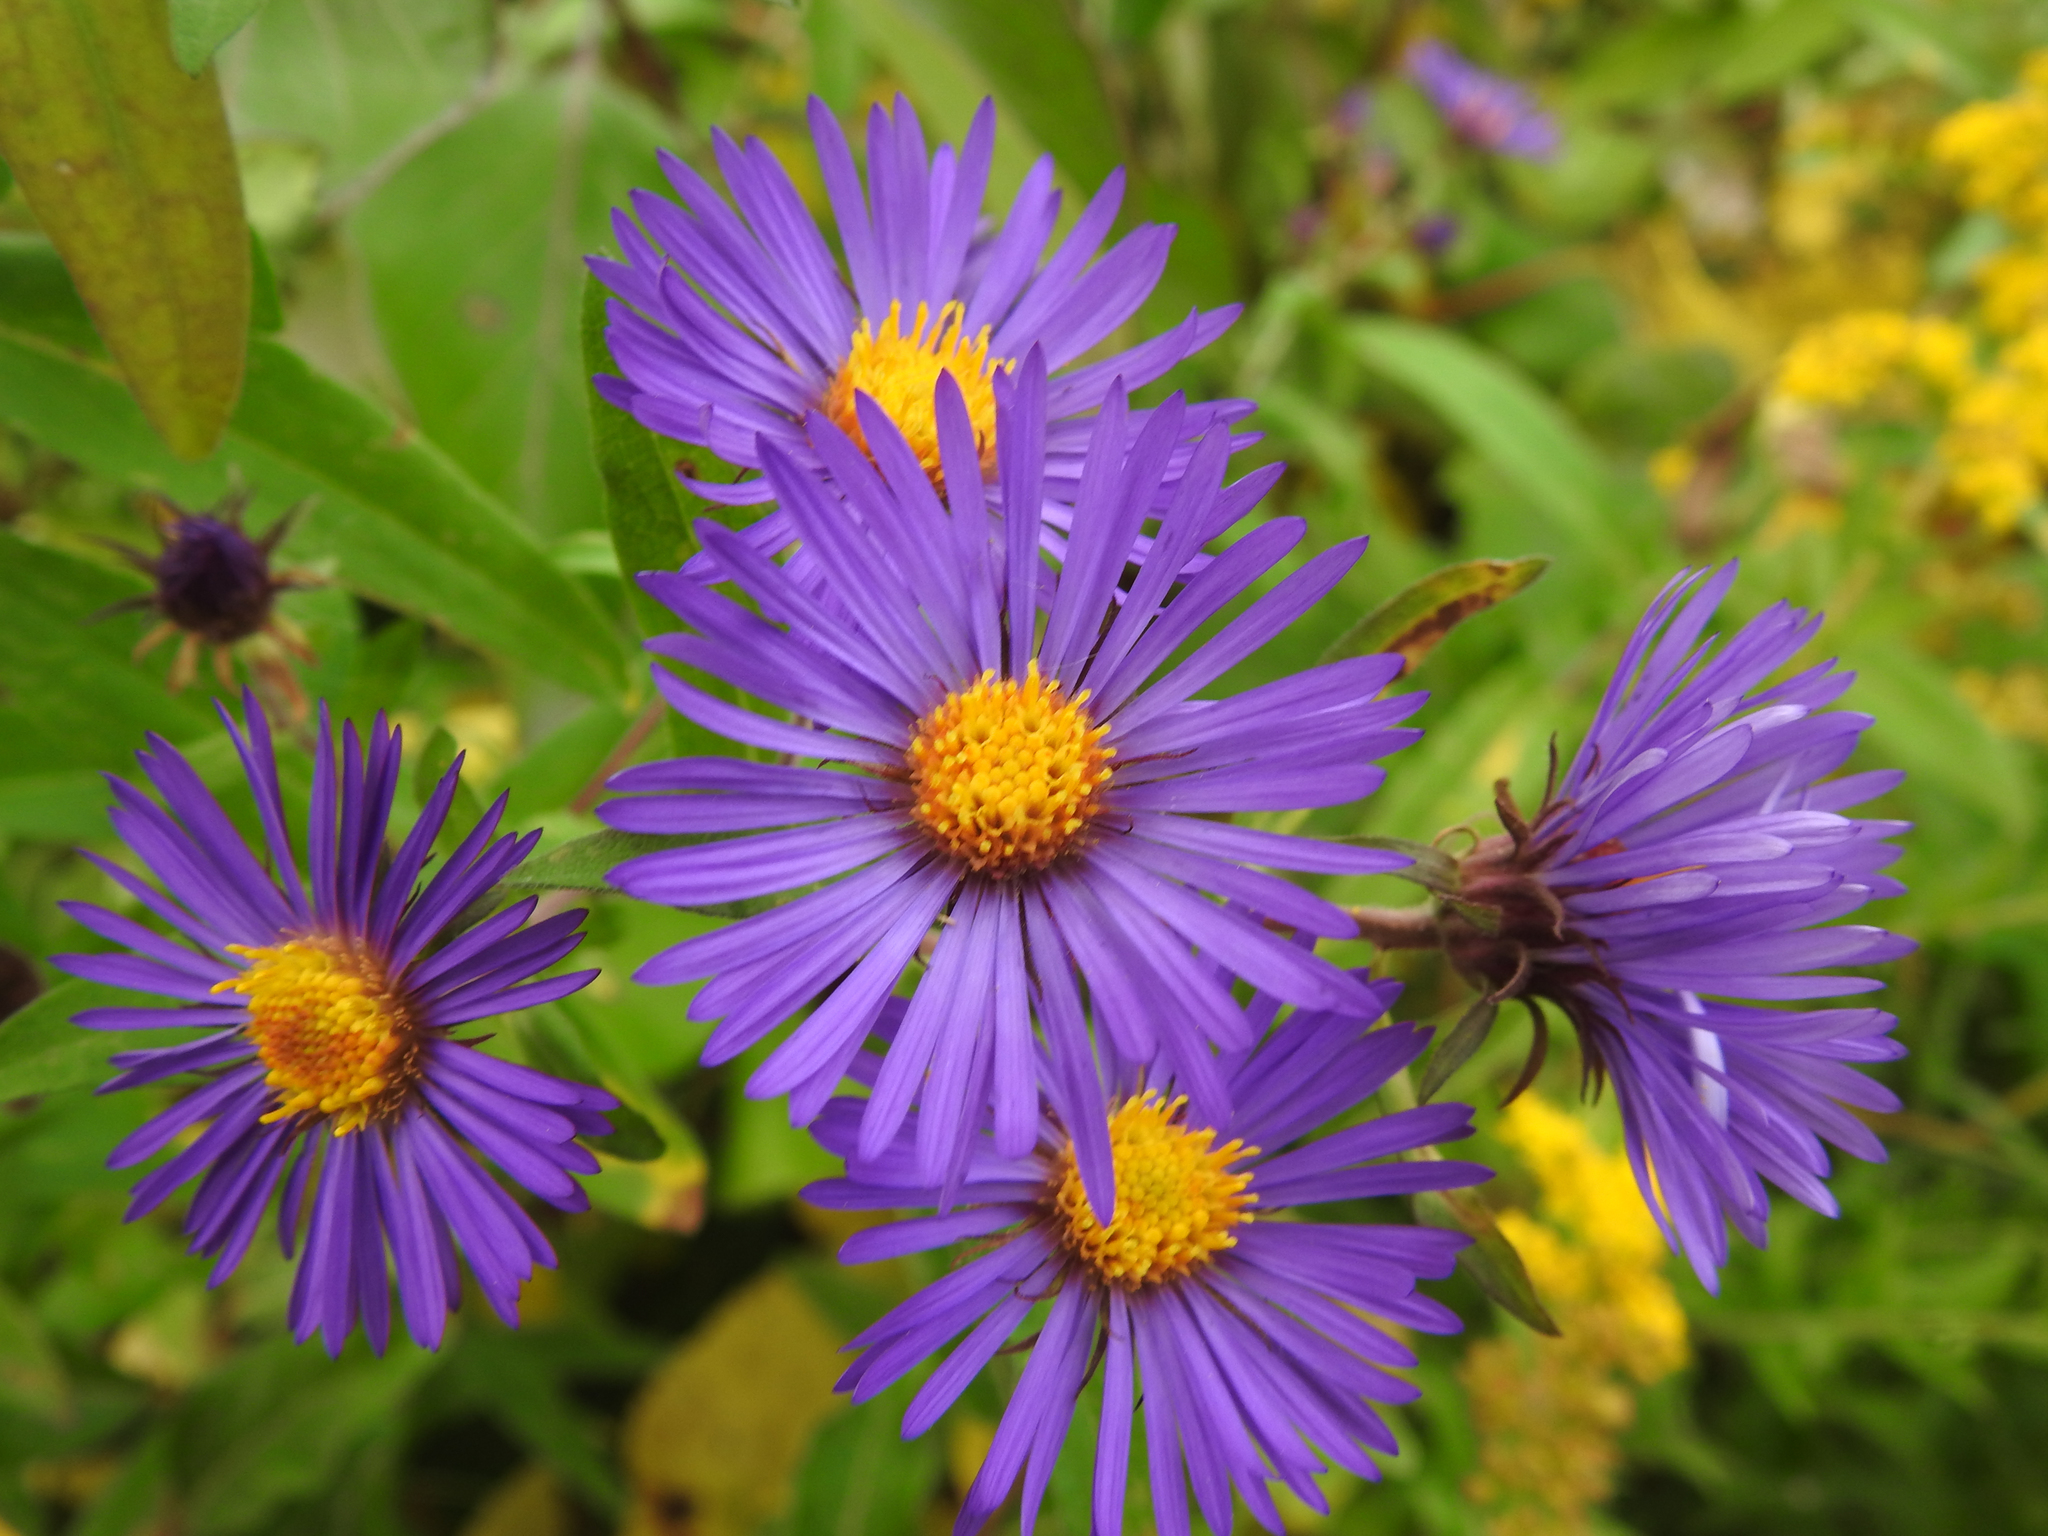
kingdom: Plantae
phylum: Tracheophyta
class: Magnoliopsida
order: Asterales
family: Asteraceae
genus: Symphyotrichum
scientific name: Symphyotrichum novae-angliae
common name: Michaelmas daisy
